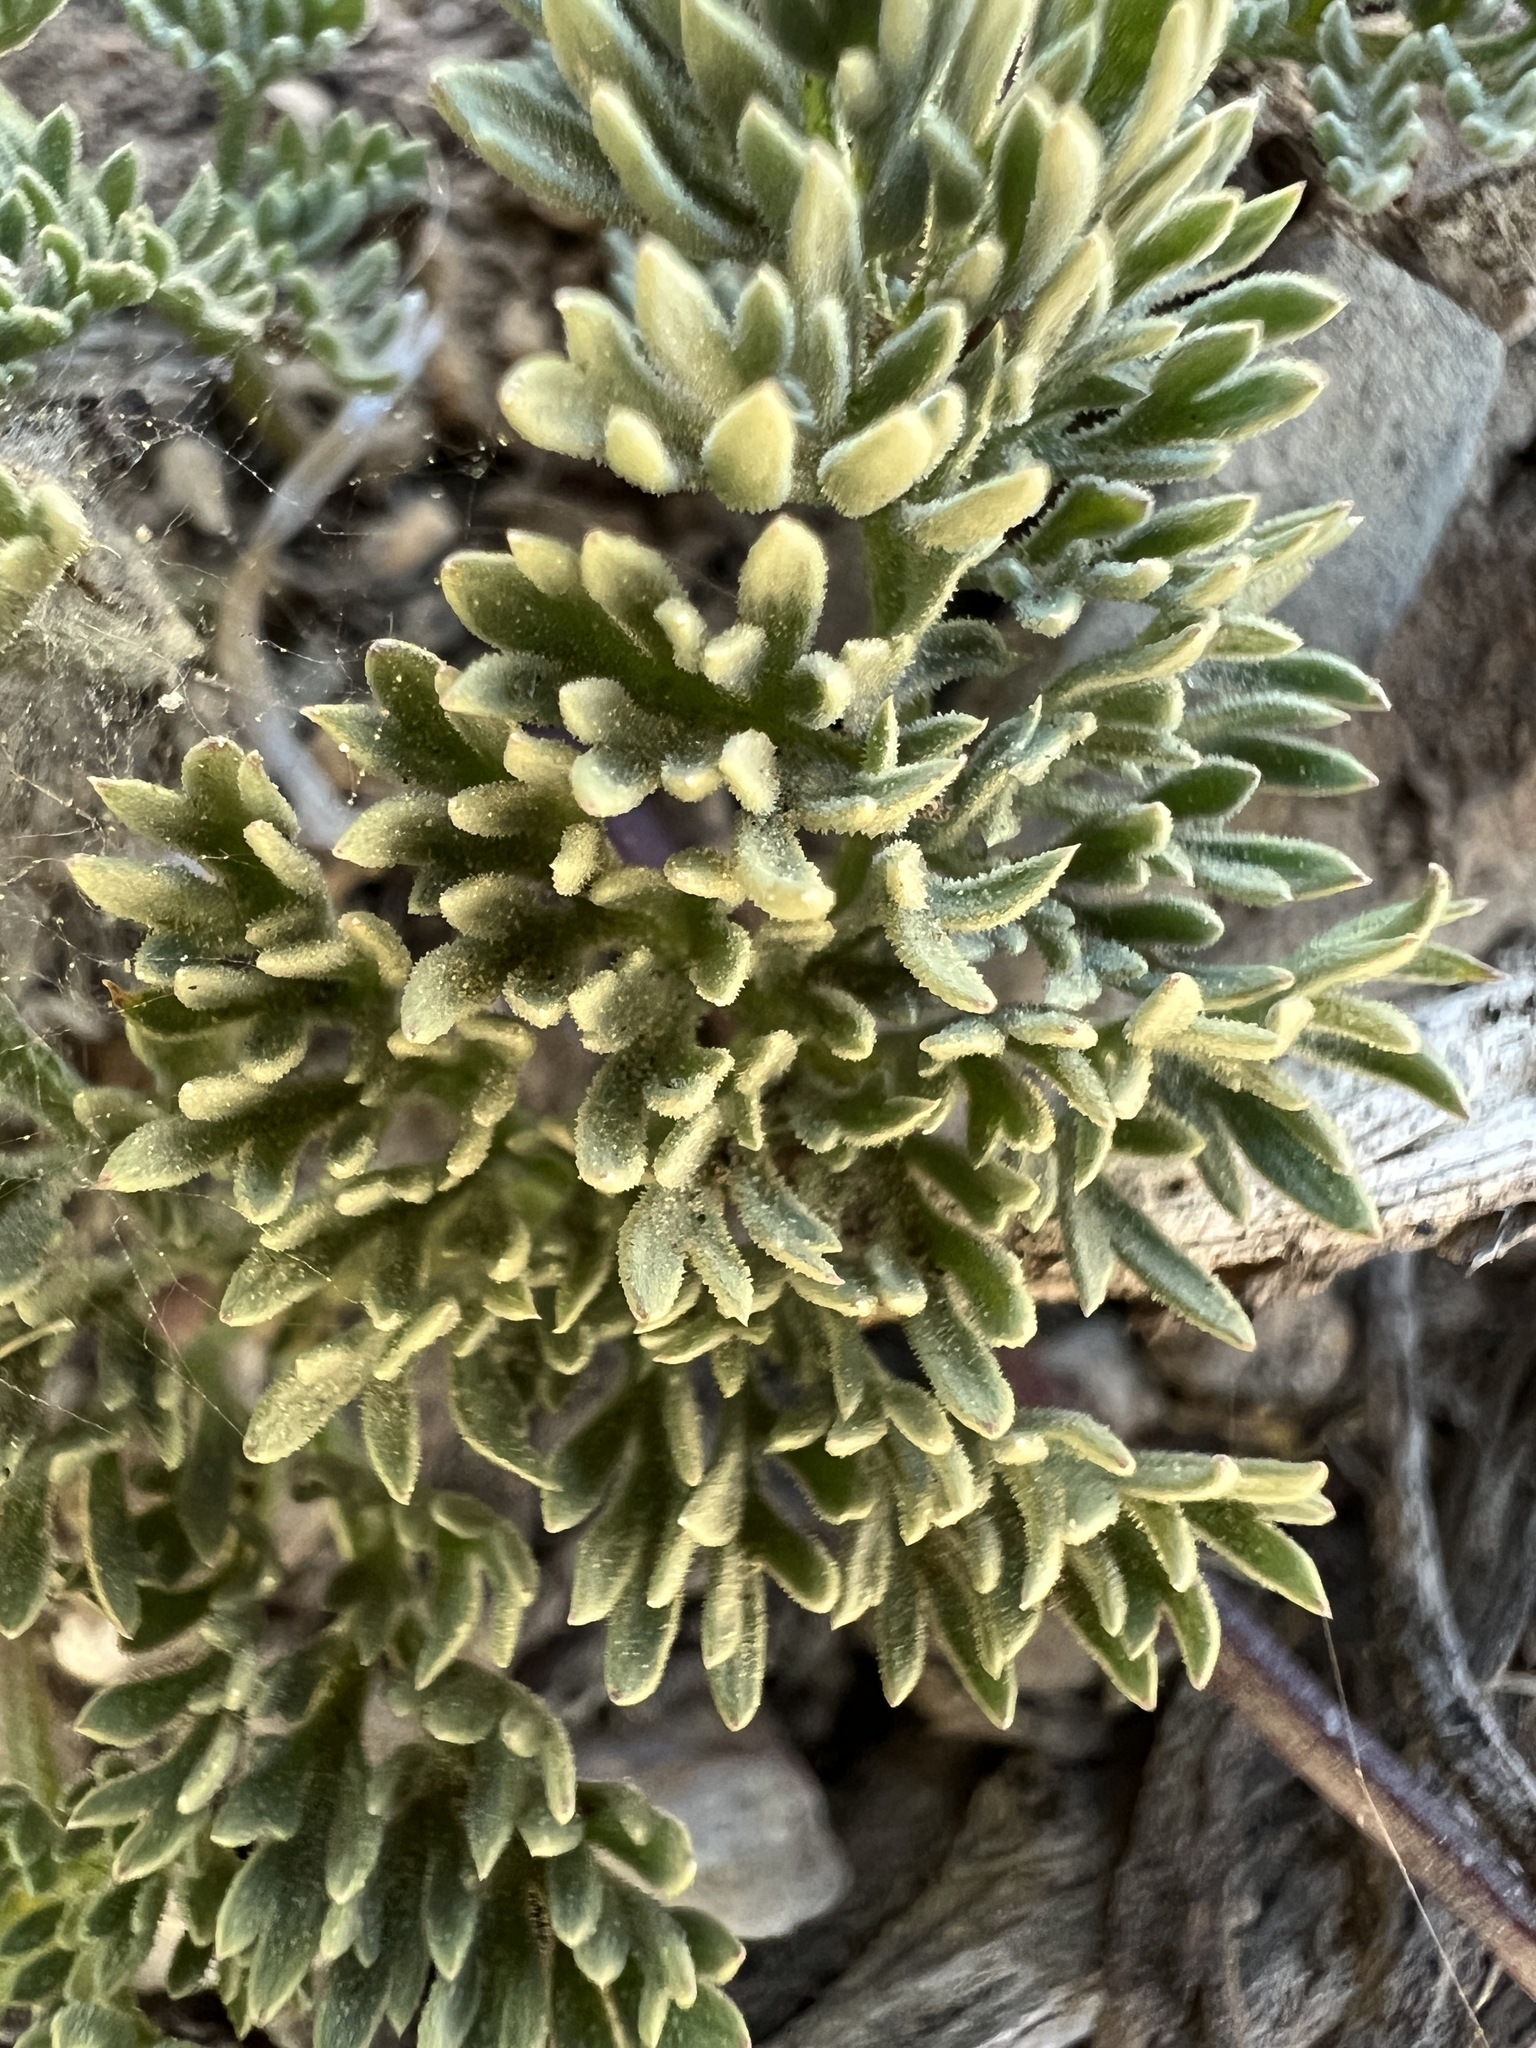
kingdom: Plantae
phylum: Tracheophyta
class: Magnoliopsida
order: Apiales
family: Apiaceae
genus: Aulospermum
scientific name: Aulospermum aboriginum
